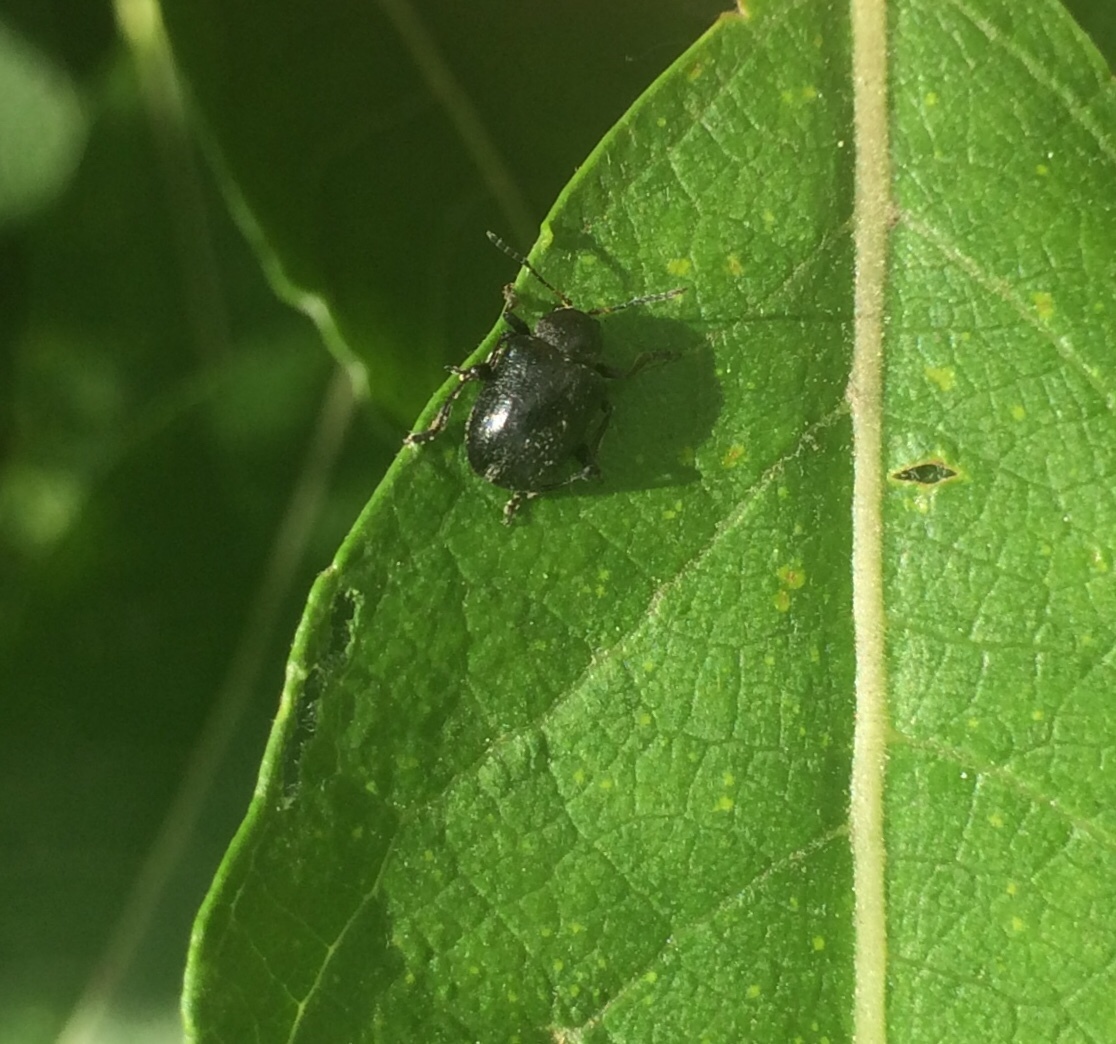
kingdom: Animalia
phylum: Arthropoda
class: Insecta
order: Coleoptera
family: Chrysomelidae
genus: Bromius
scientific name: Bromius obscurus
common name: Western grape rootworm
